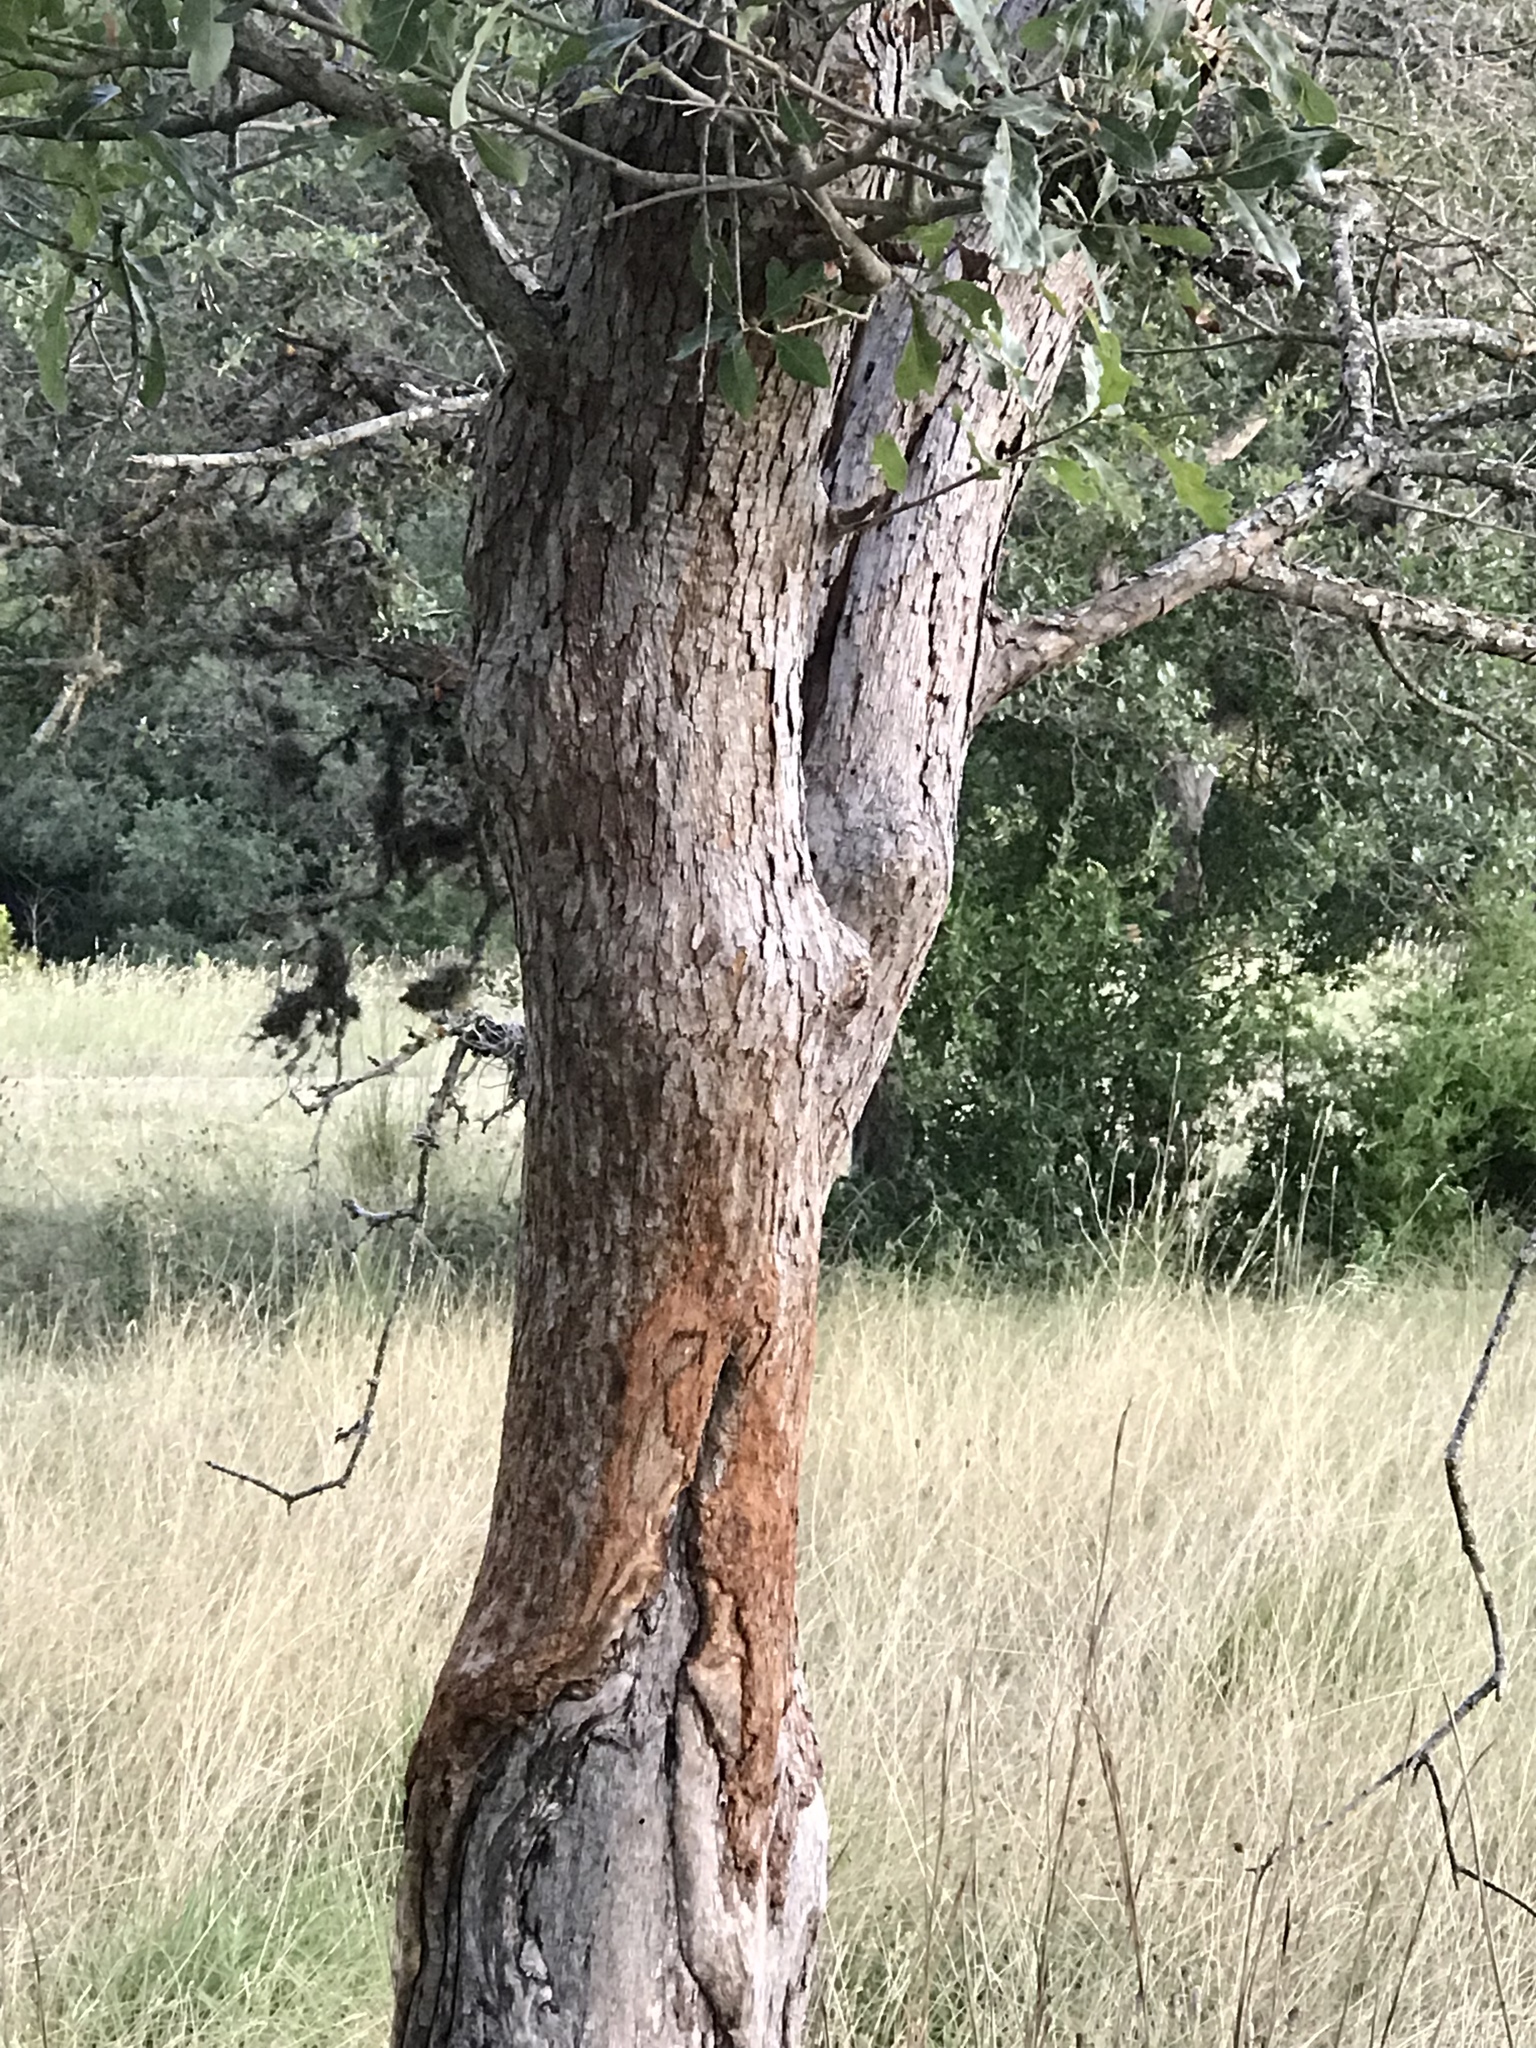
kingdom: Plantae
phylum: Tracheophyta
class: Magnoliopsida
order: Fagales
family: Fagaceae
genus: Quercus
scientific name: Quercus sinuata
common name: Durand oak
